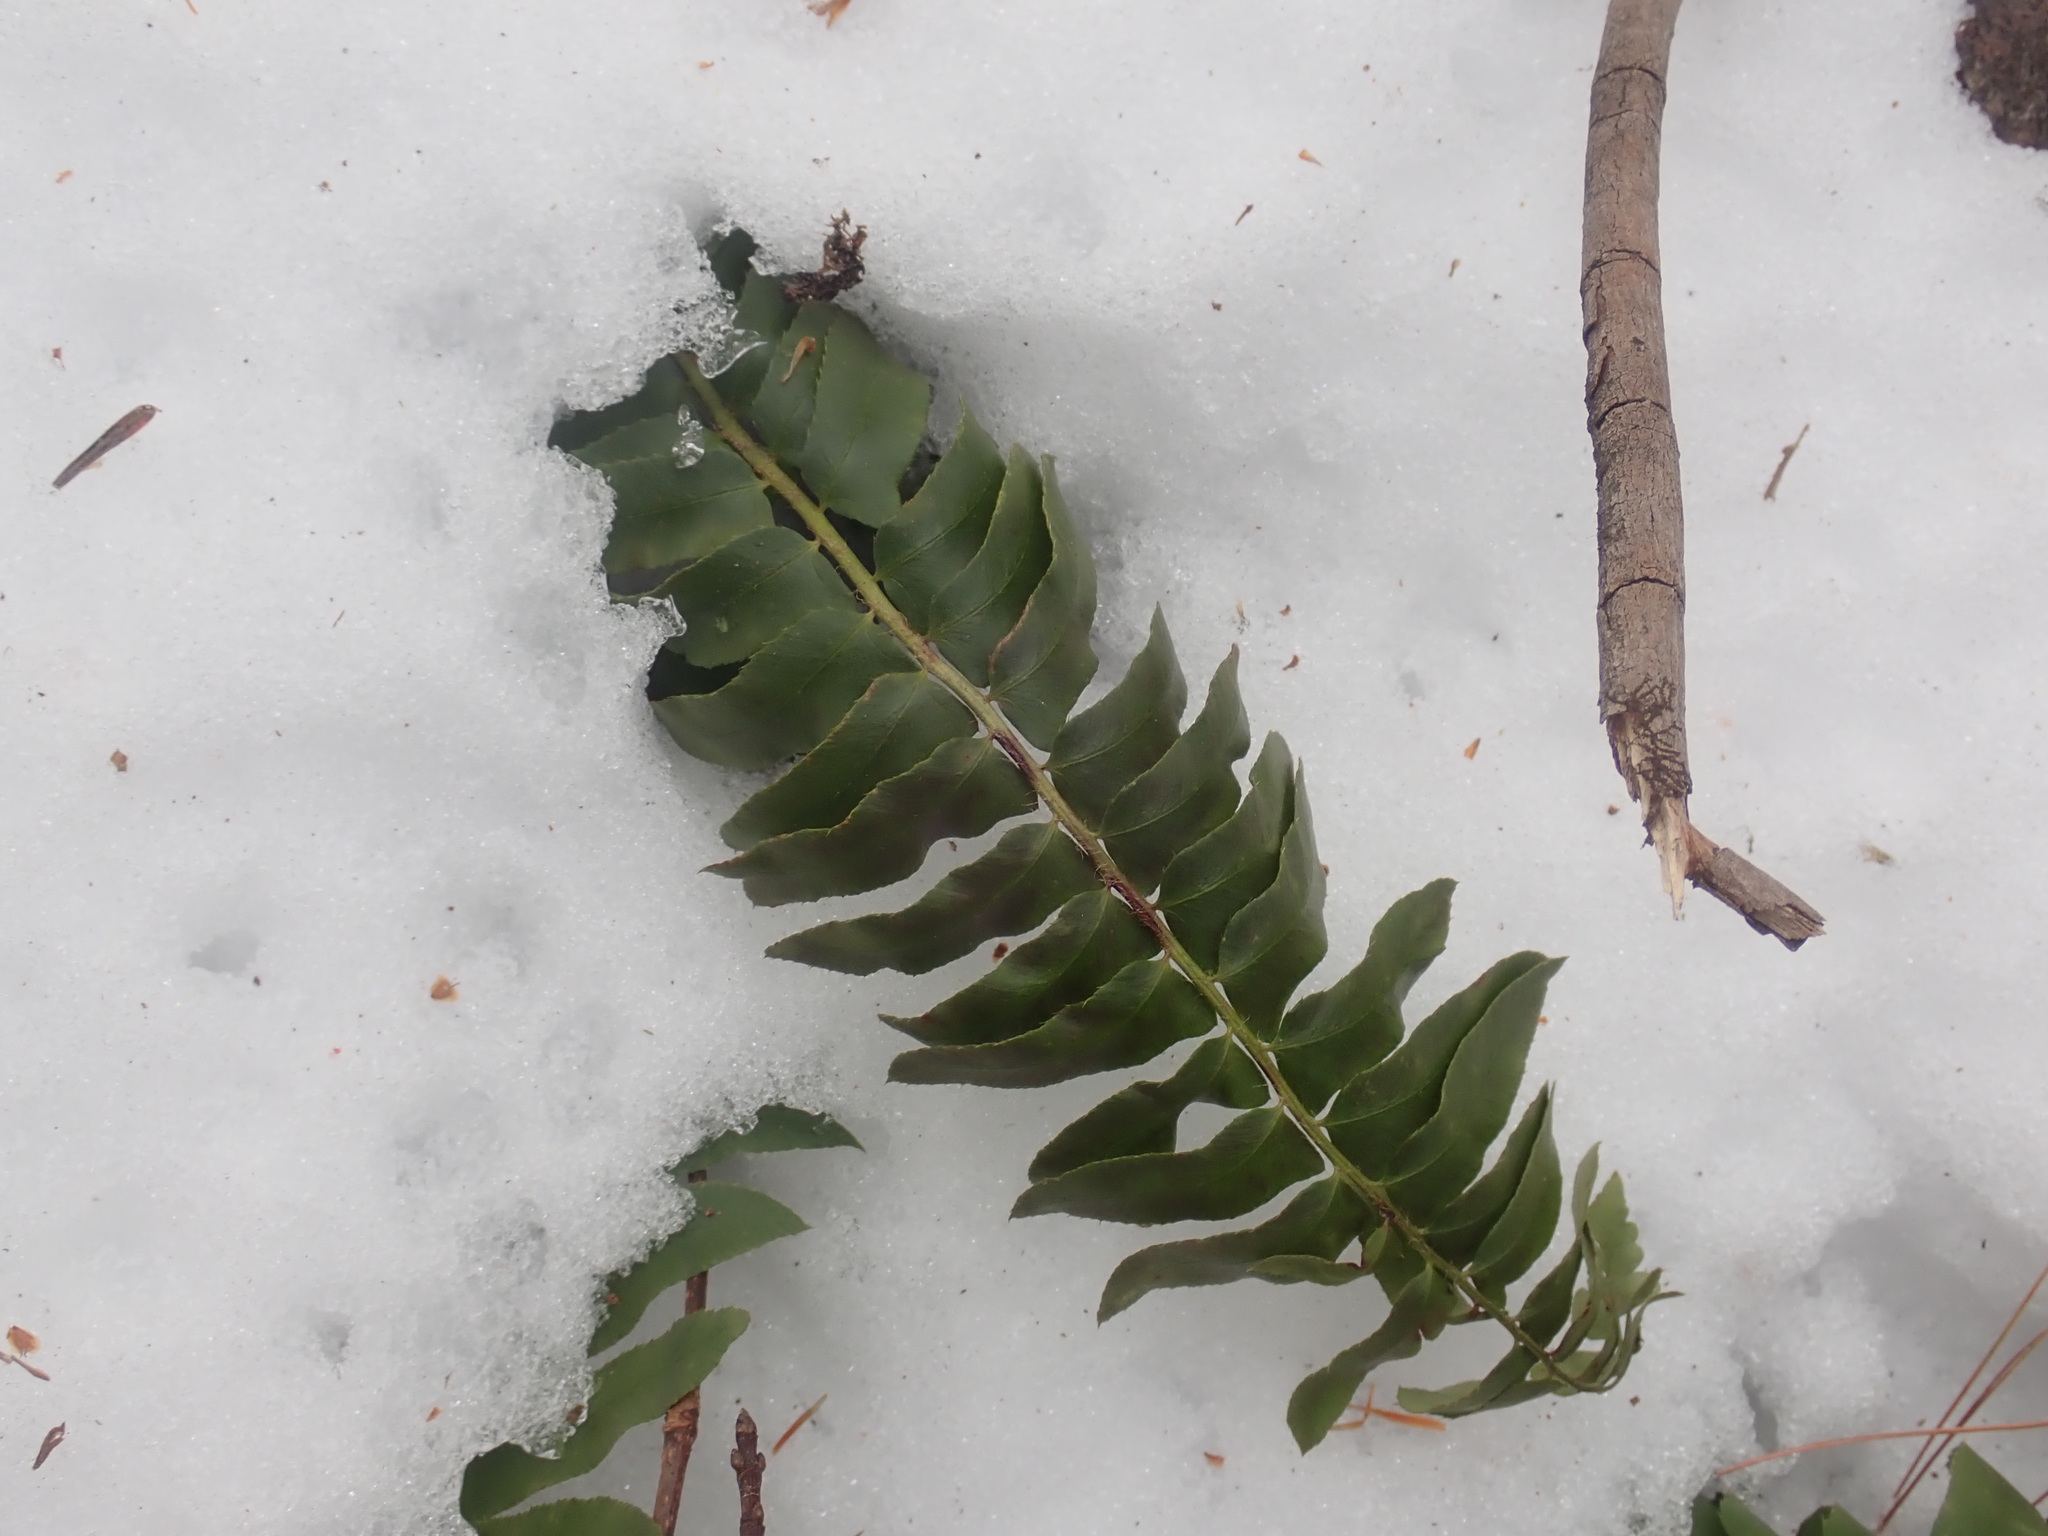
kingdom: Plantae
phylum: Tracheophyta
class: Polypodiopsida
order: Polypodiales
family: Dryopteridaceae
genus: Polystichum
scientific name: Polystichum acrostichoides
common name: Christmas fern
